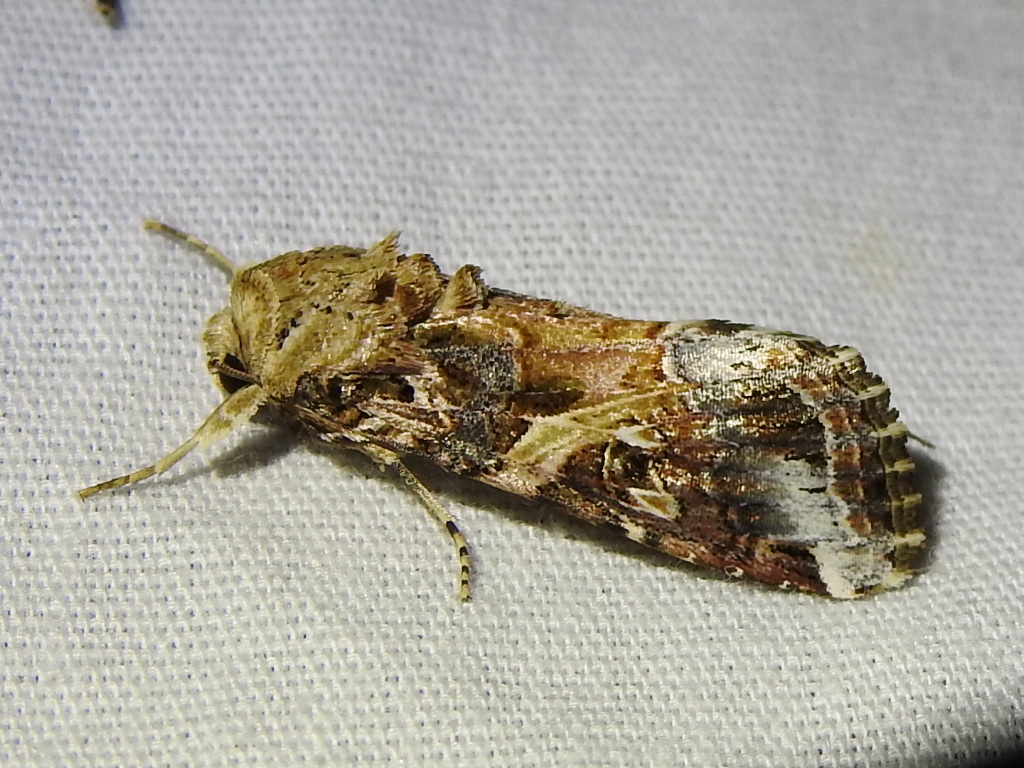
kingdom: Animalia
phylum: Arthropoda
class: Insecta
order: Lepidoptera
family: Noctuidae
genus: Spodoptera
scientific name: Spodoptera ornithogalli
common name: Yellow-striped armyworm
